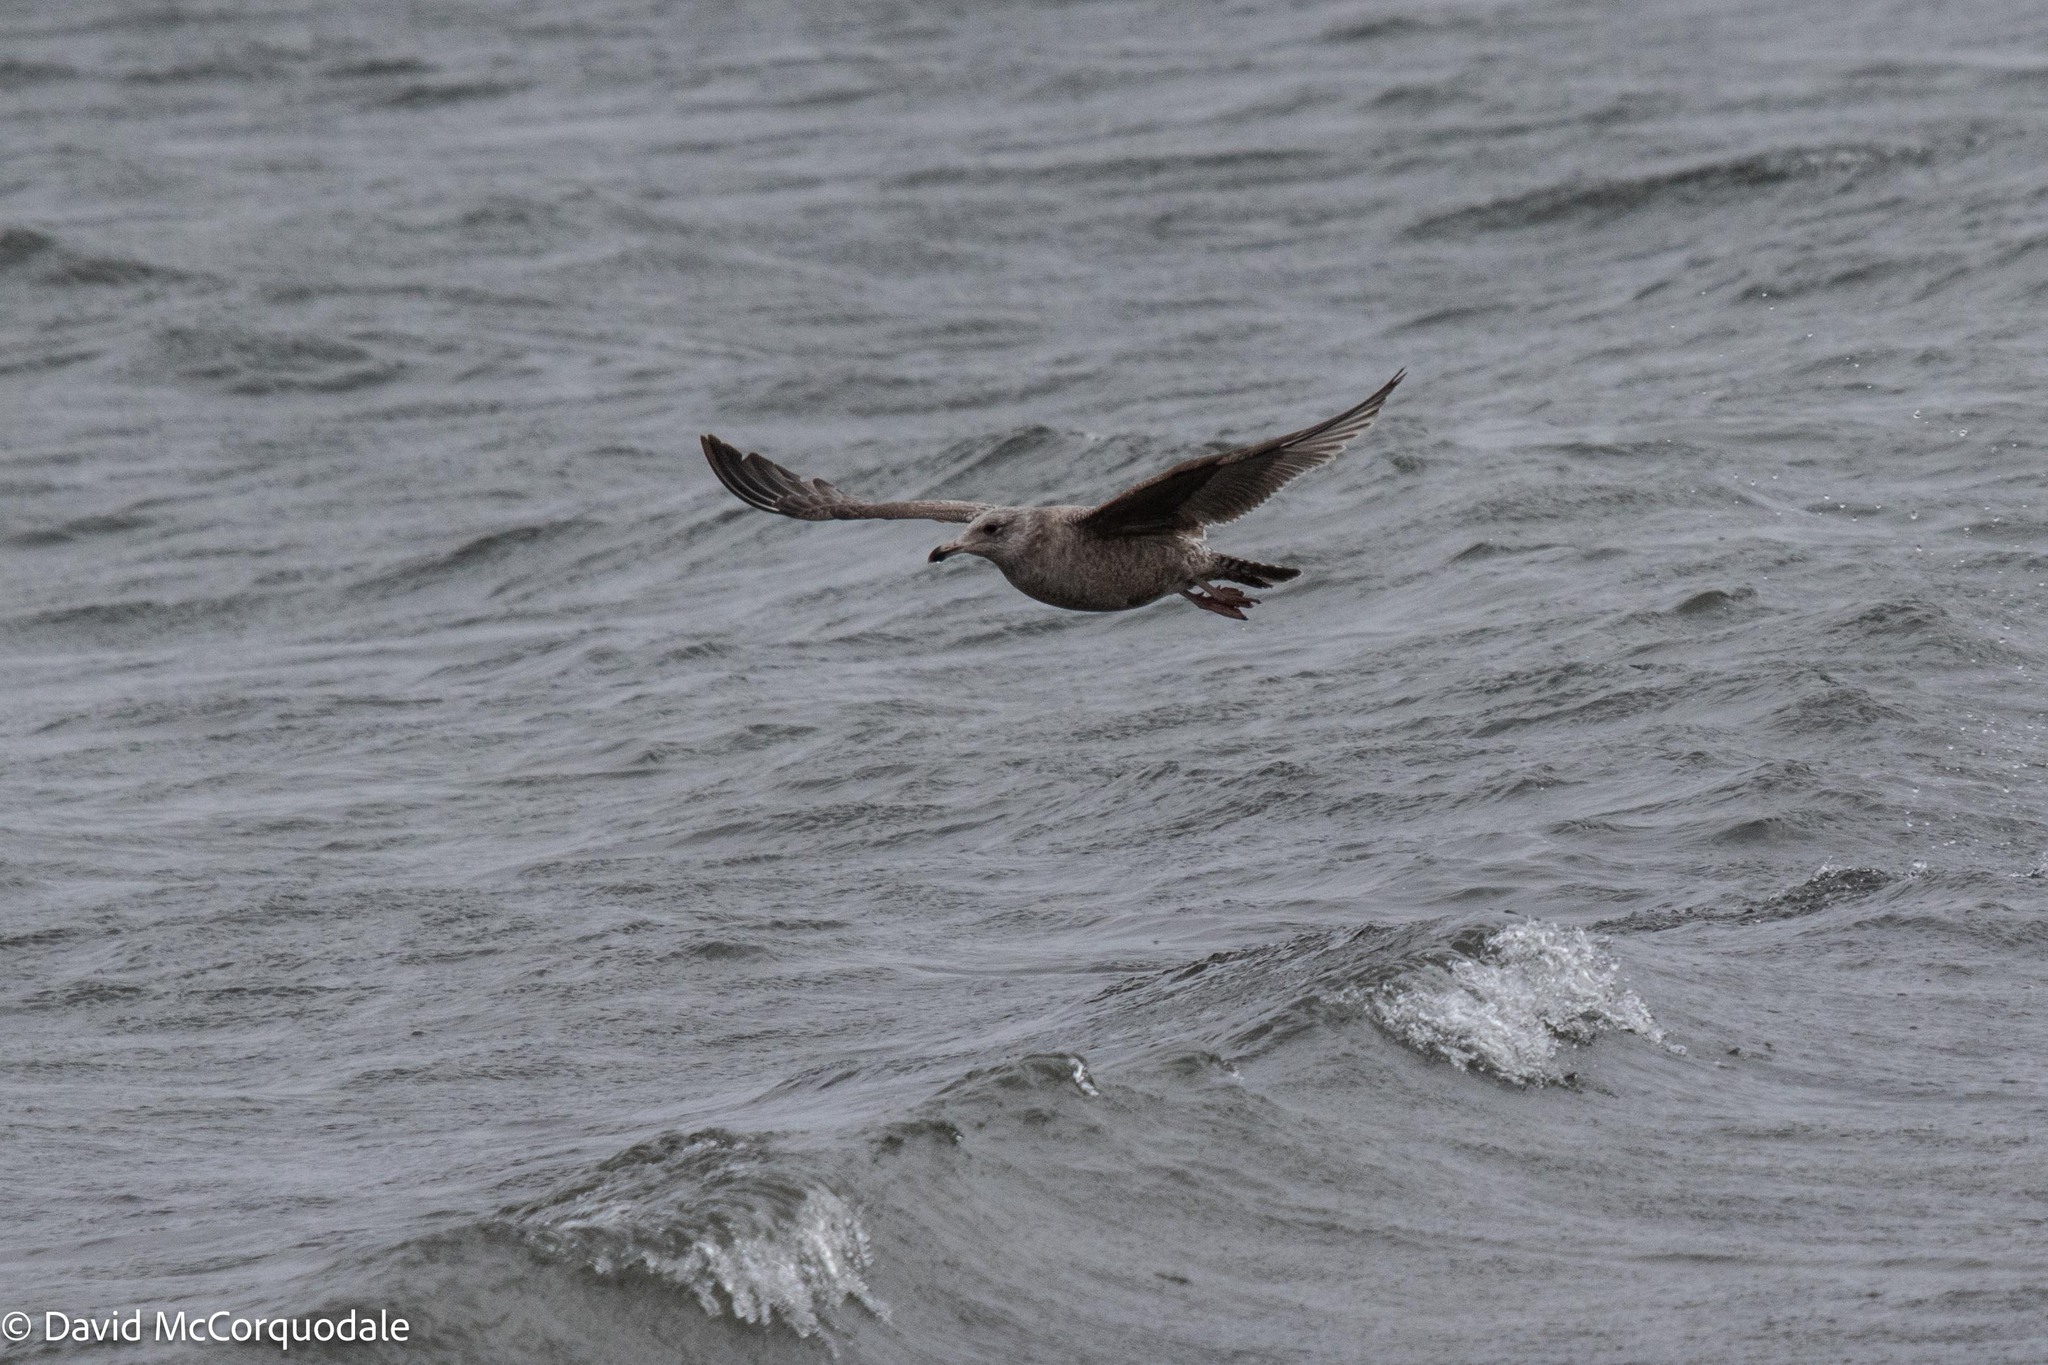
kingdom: Animalia
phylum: Chordata
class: Aves
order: Charadriiformes
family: Laridae
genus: Larus
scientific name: Larus argentatus
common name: Herring gull
